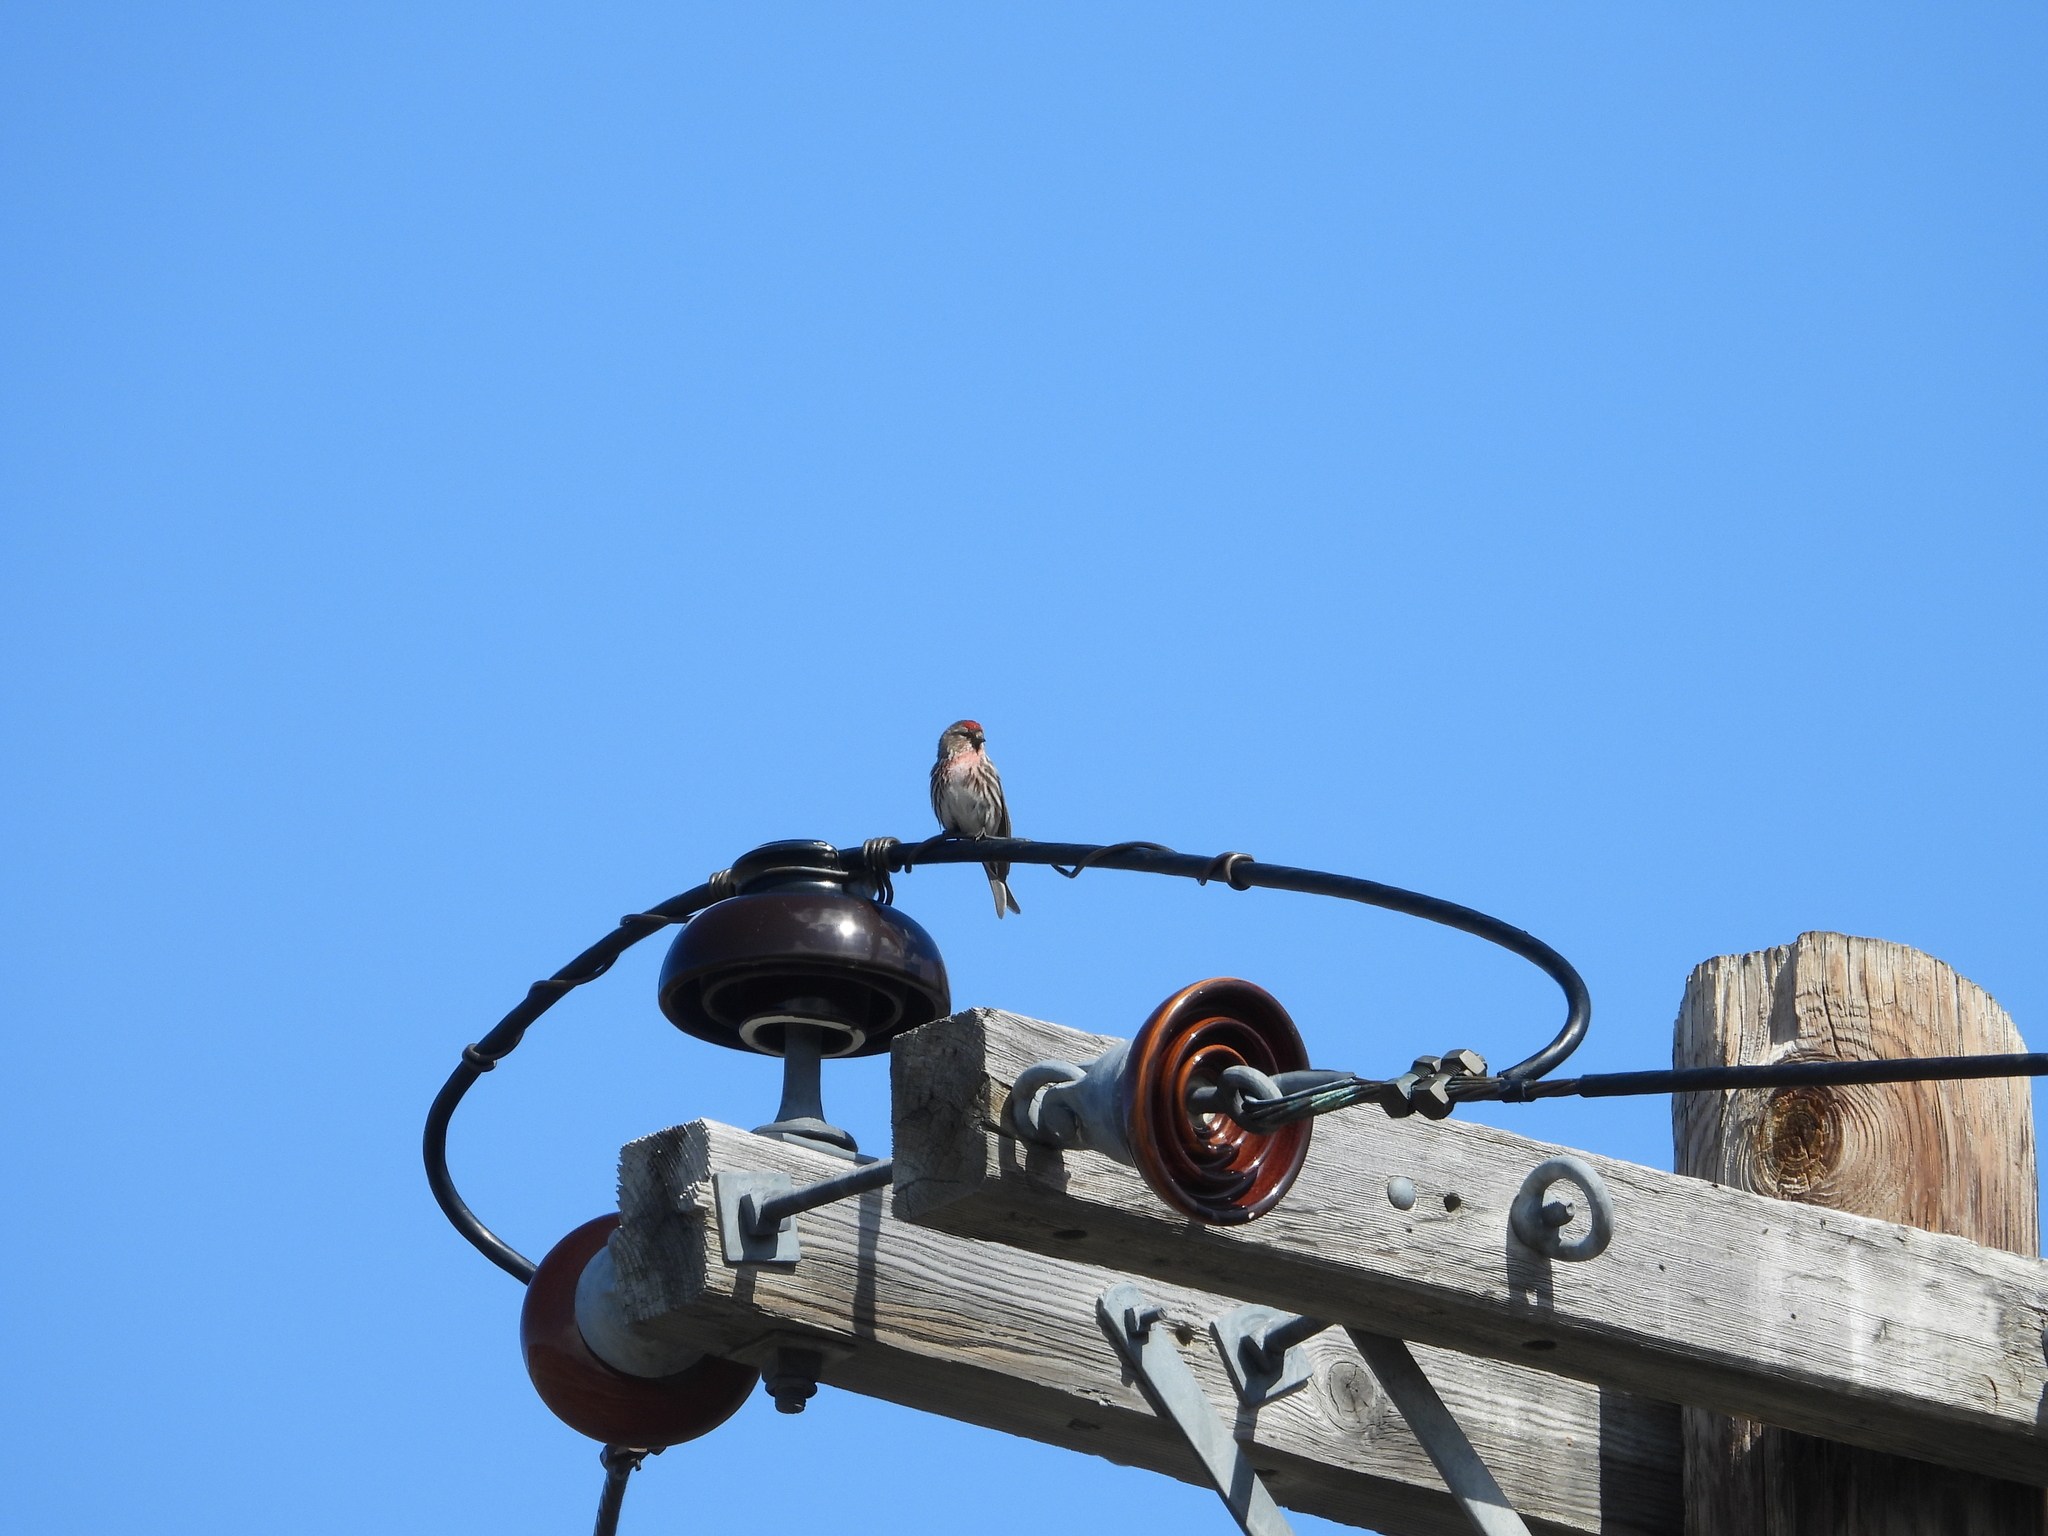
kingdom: Animalia
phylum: Chordata
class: Aves
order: Passeriformes
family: Fringillidae
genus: Acanthis
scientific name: Acanthis flammea
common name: Common redpoll
